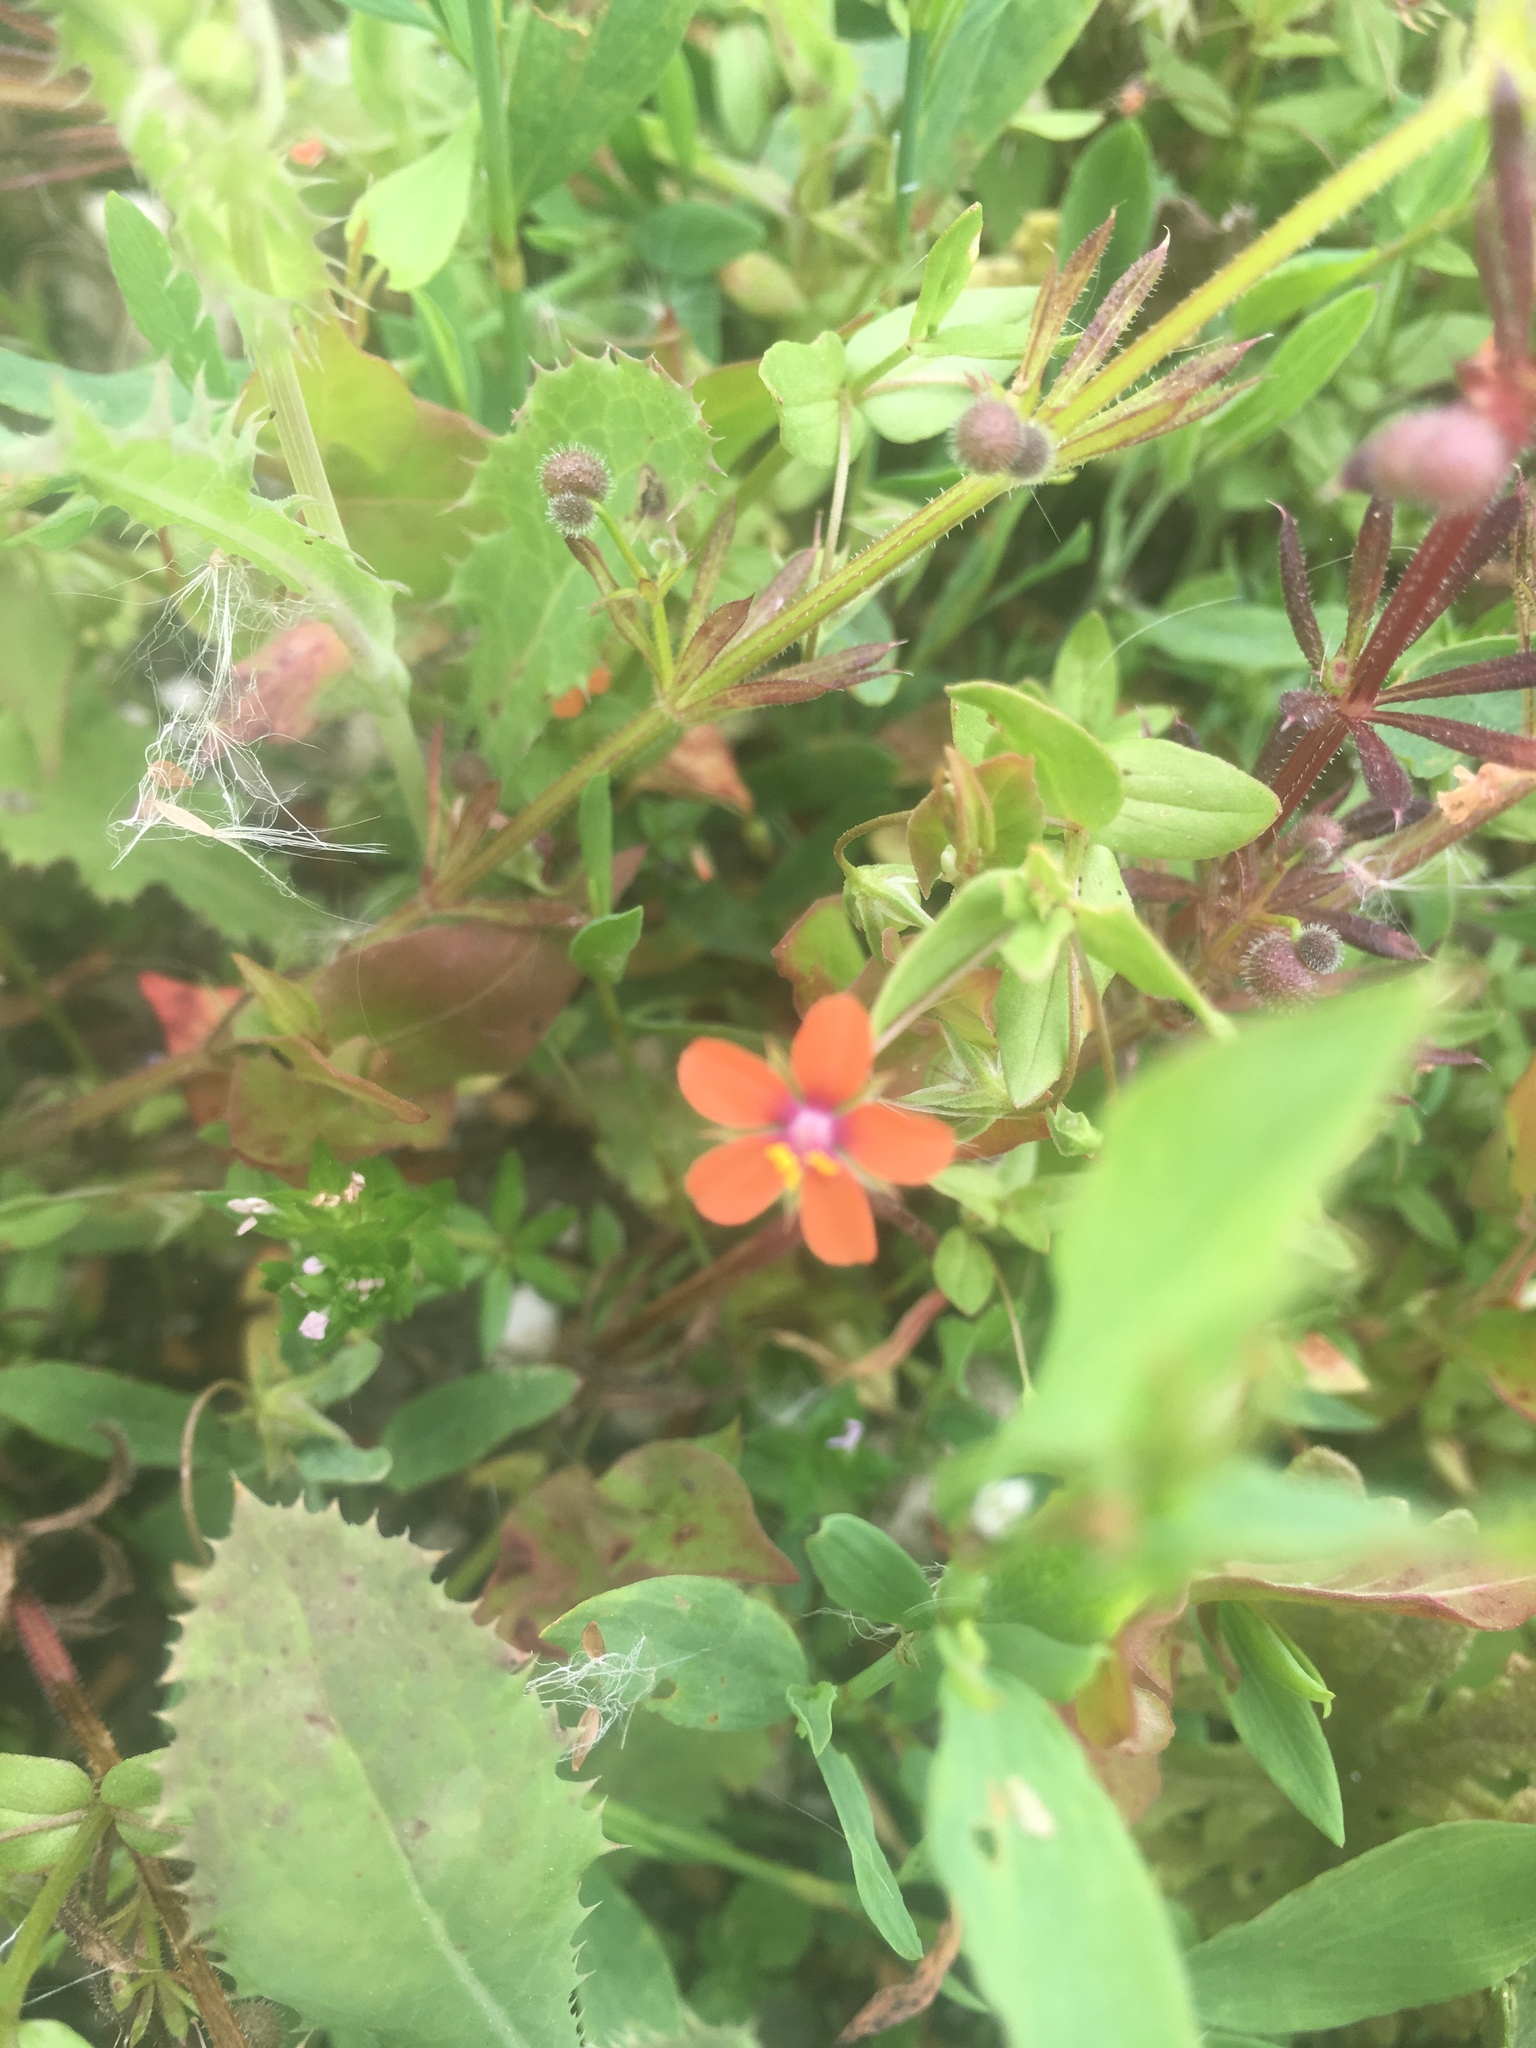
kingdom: Plantae
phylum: Tracheophyta
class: Magnoliopsida
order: Ericales
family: Primulaceae
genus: Lysimachia
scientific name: Lysimachia arvensis
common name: Scarlet pimpernel
